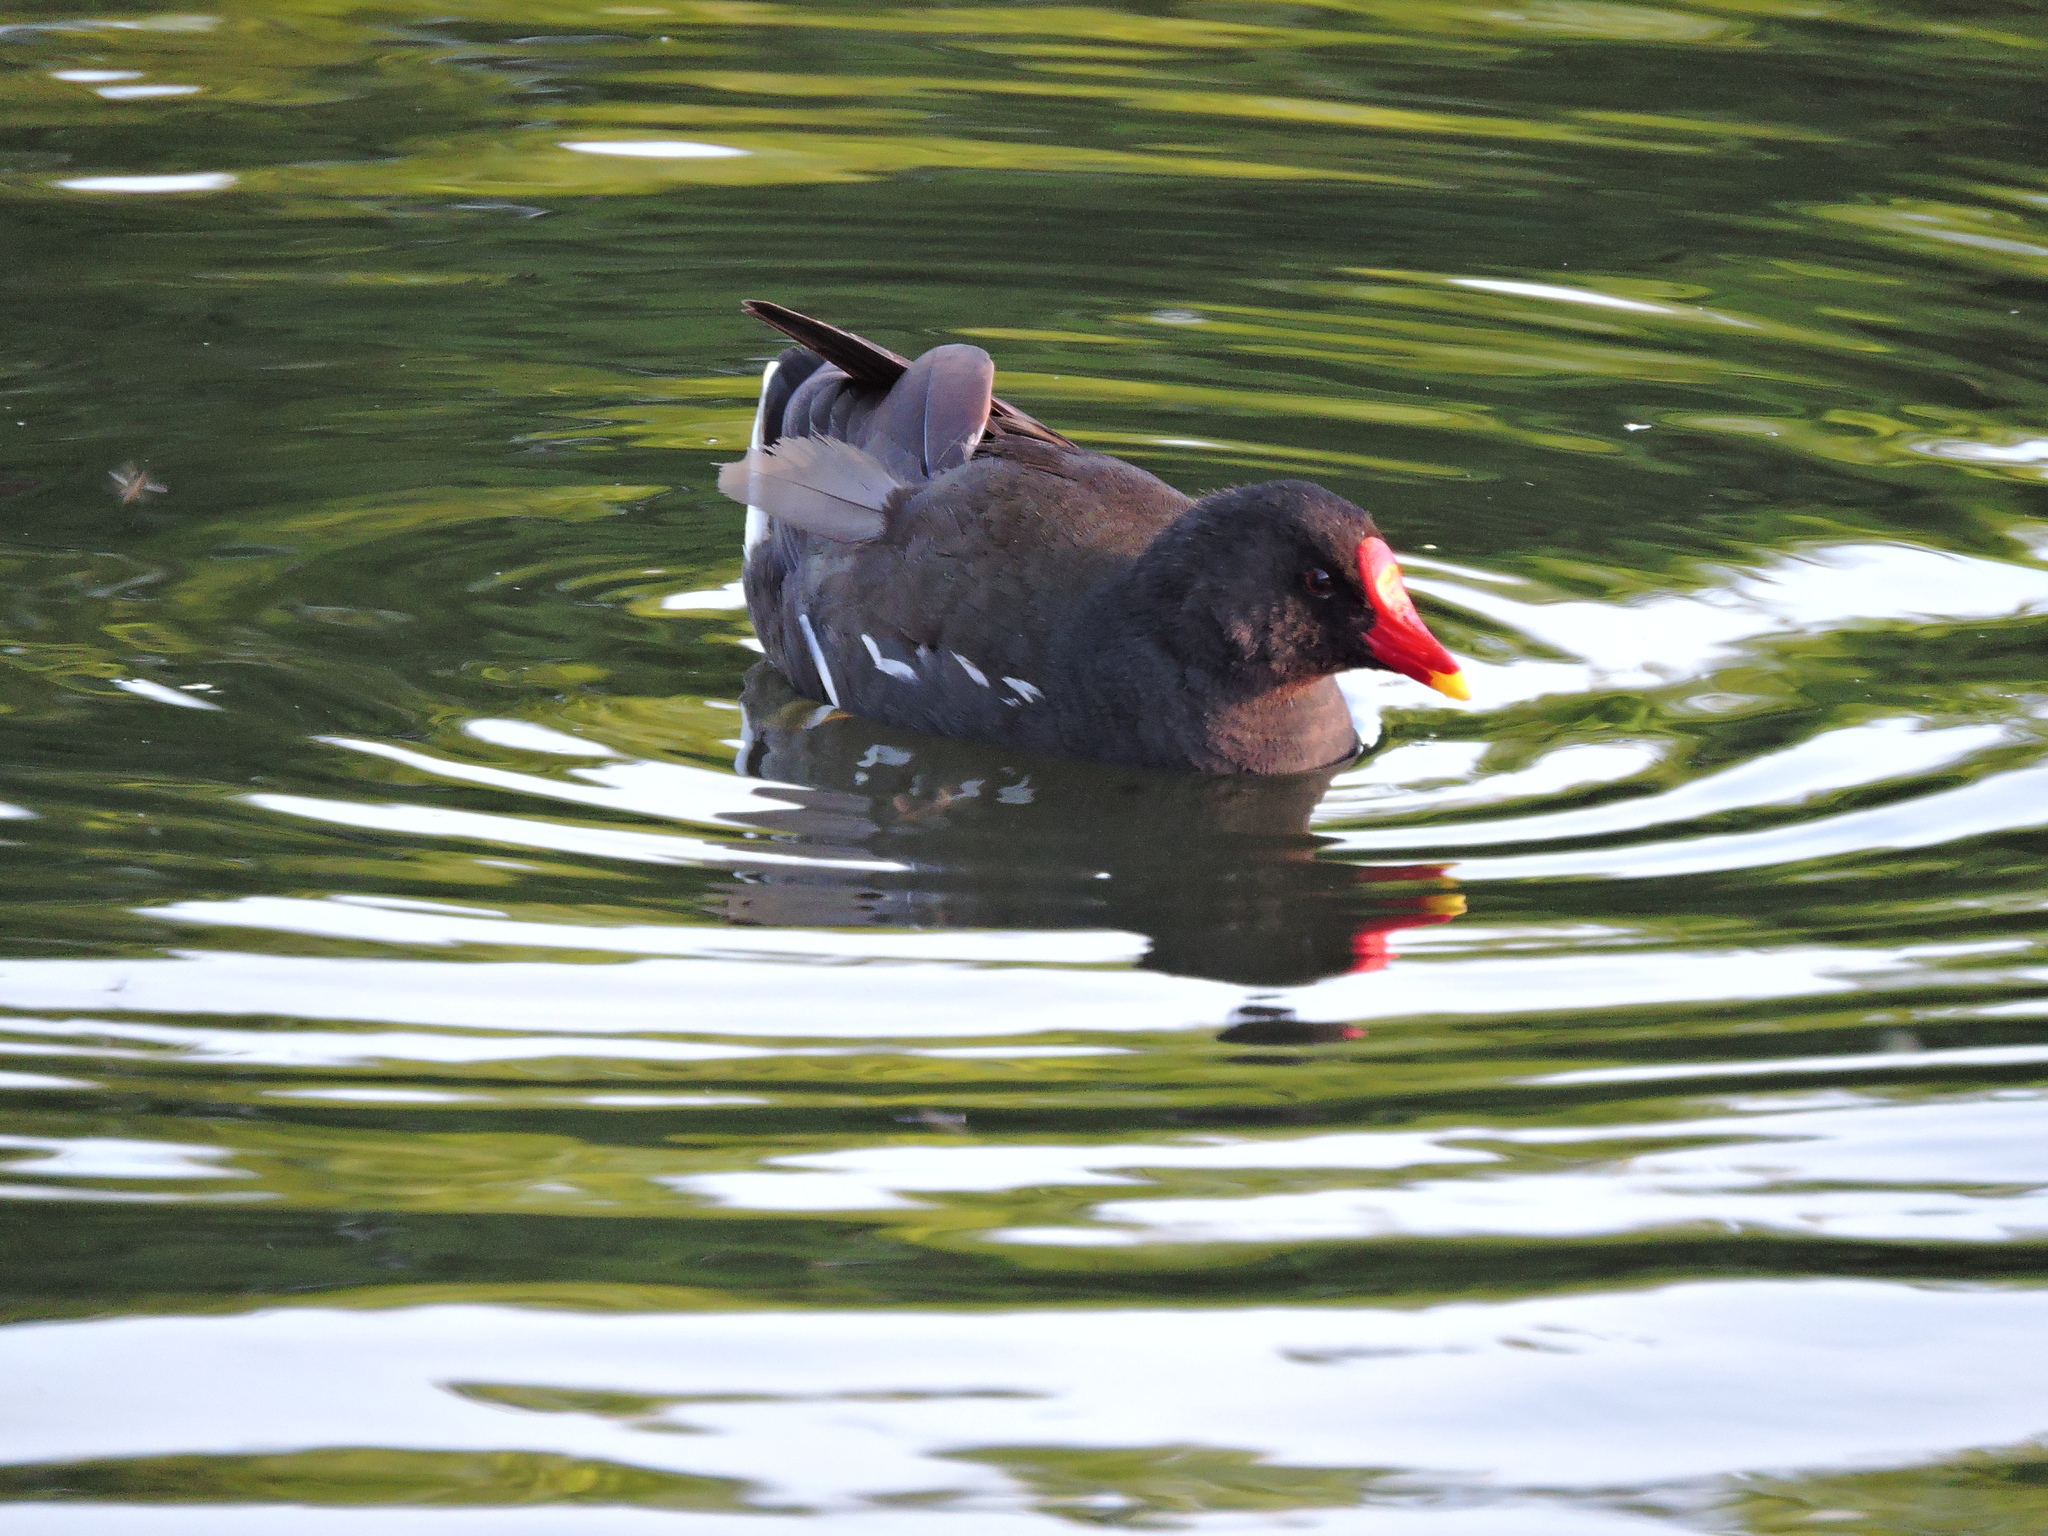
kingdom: Animalia
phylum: Chordata
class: Aves
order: Gruiformes
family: Rallidae
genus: Gallinula
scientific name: Gallinula chloropus
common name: Common moorhen
